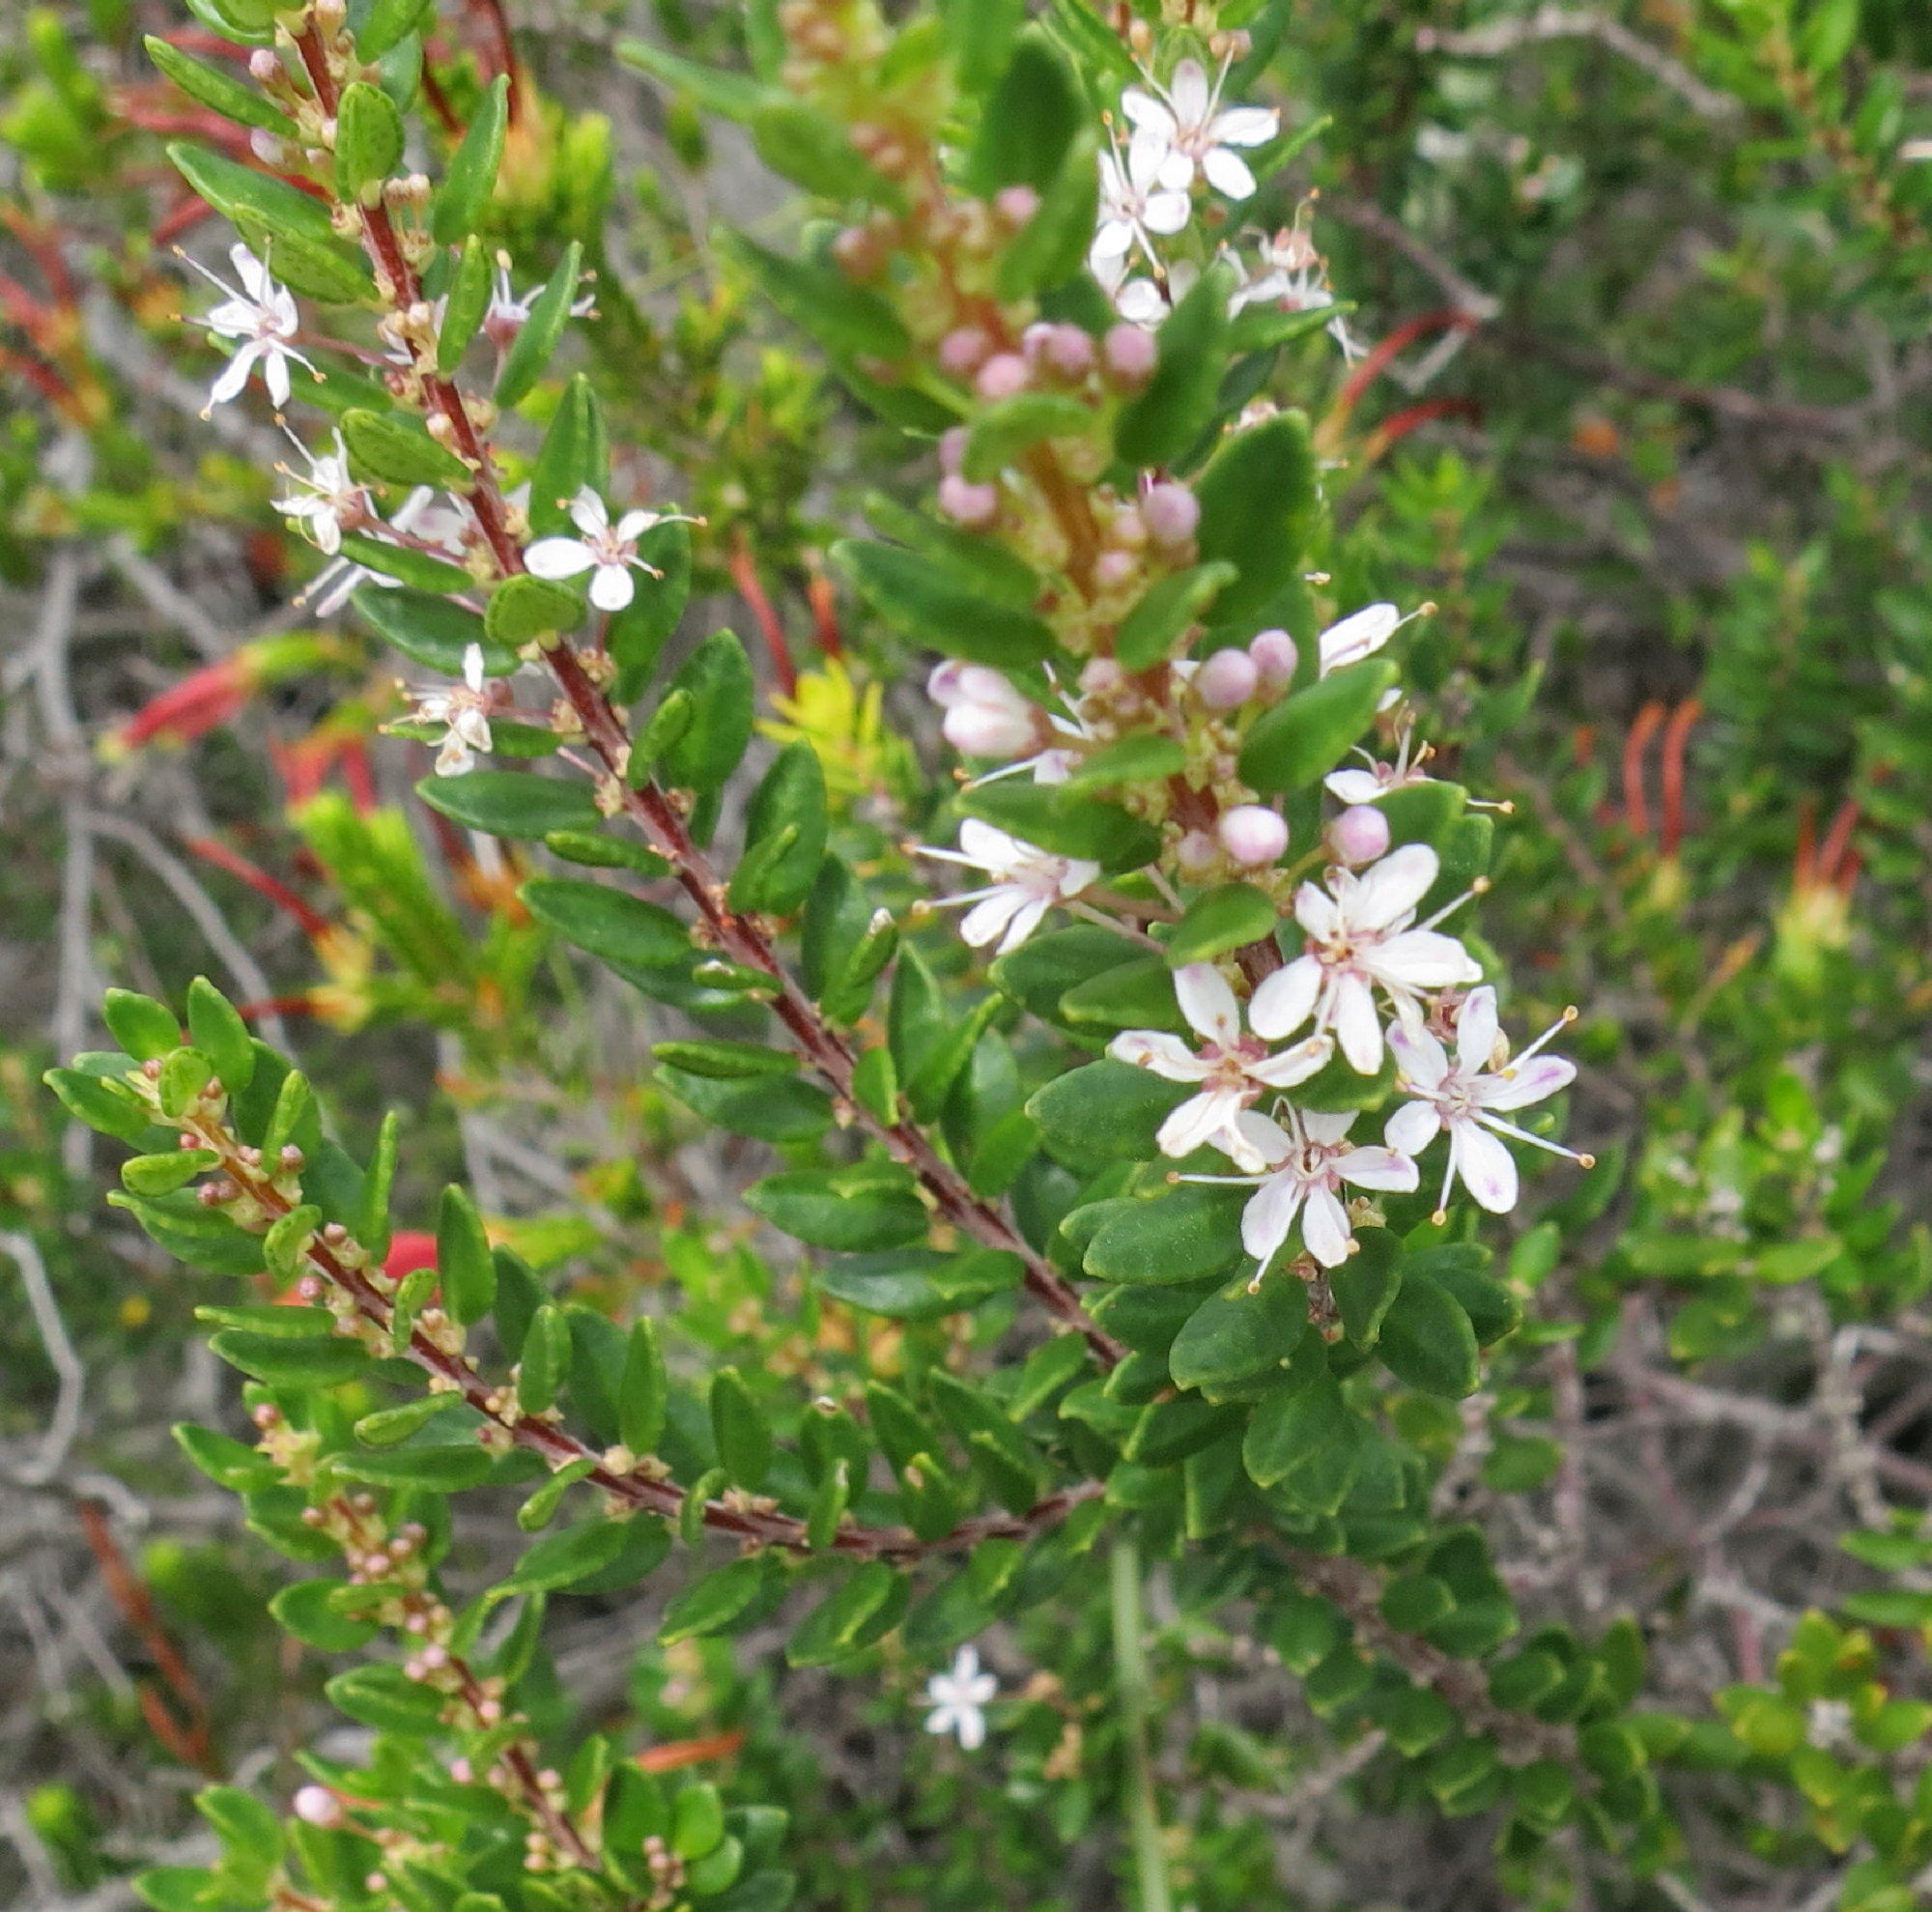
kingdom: Plantae
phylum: Tracheophyta
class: Magnoliopsida
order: Sapindales
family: Rutaceae
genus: Agathosma
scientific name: Agathosma ovata
